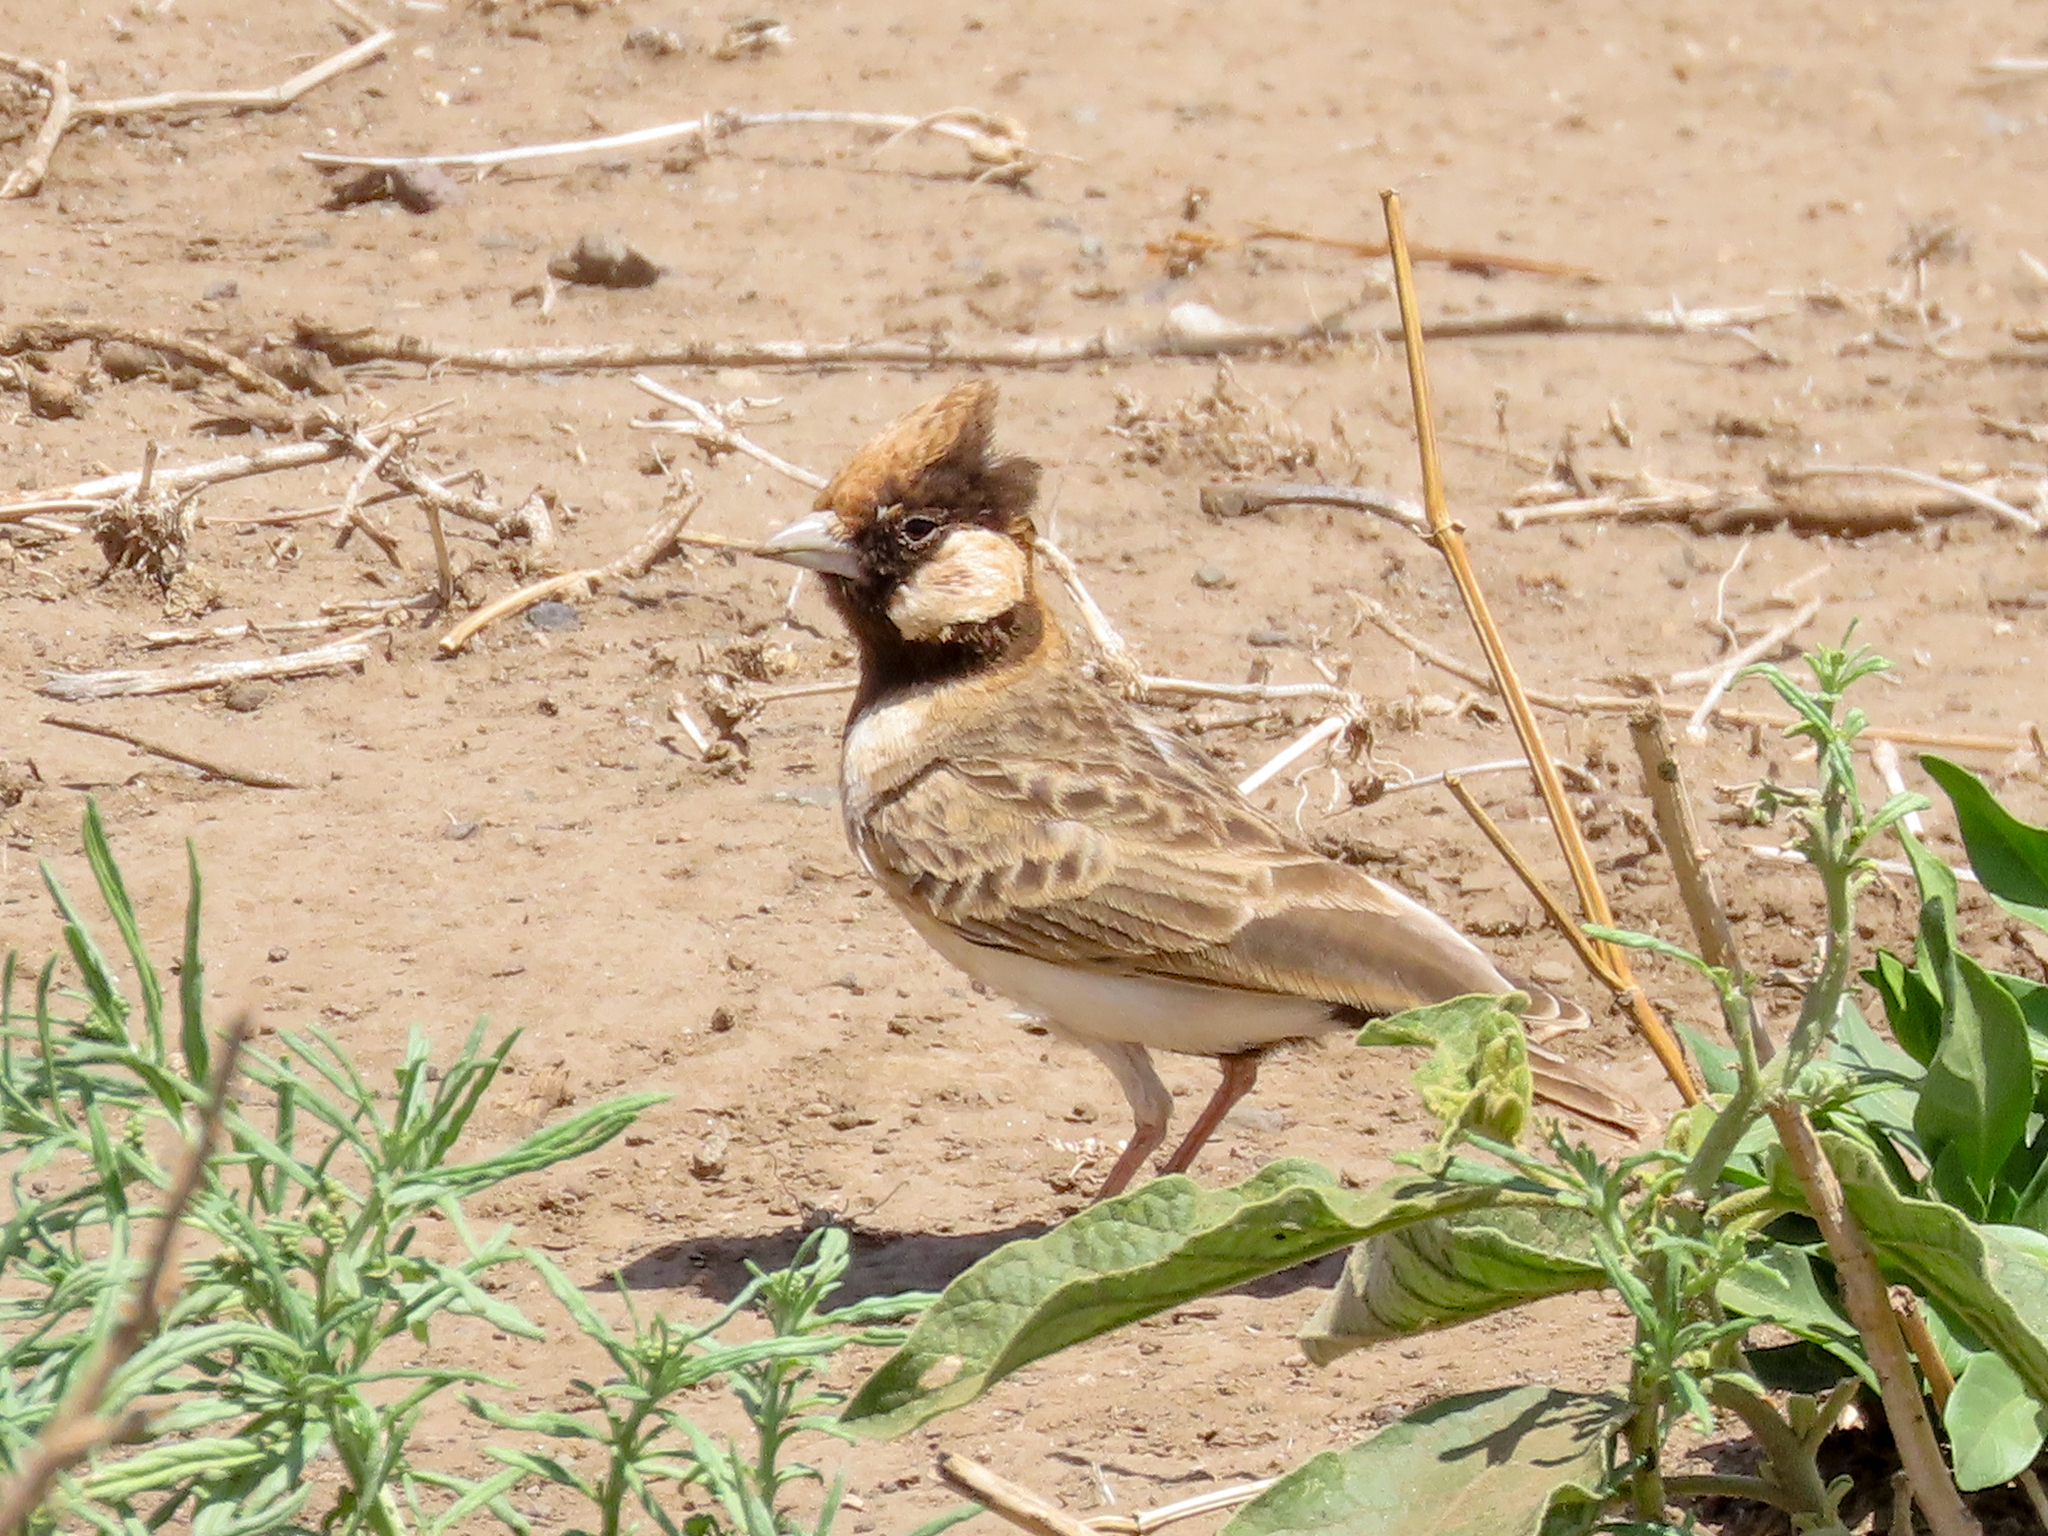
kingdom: Animalia
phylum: Chordata
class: Aves
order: Passeriformes
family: Alaudidae
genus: Eremopterix
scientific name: Eremopterix leucopareia
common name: Fischer's sparrow-lark
